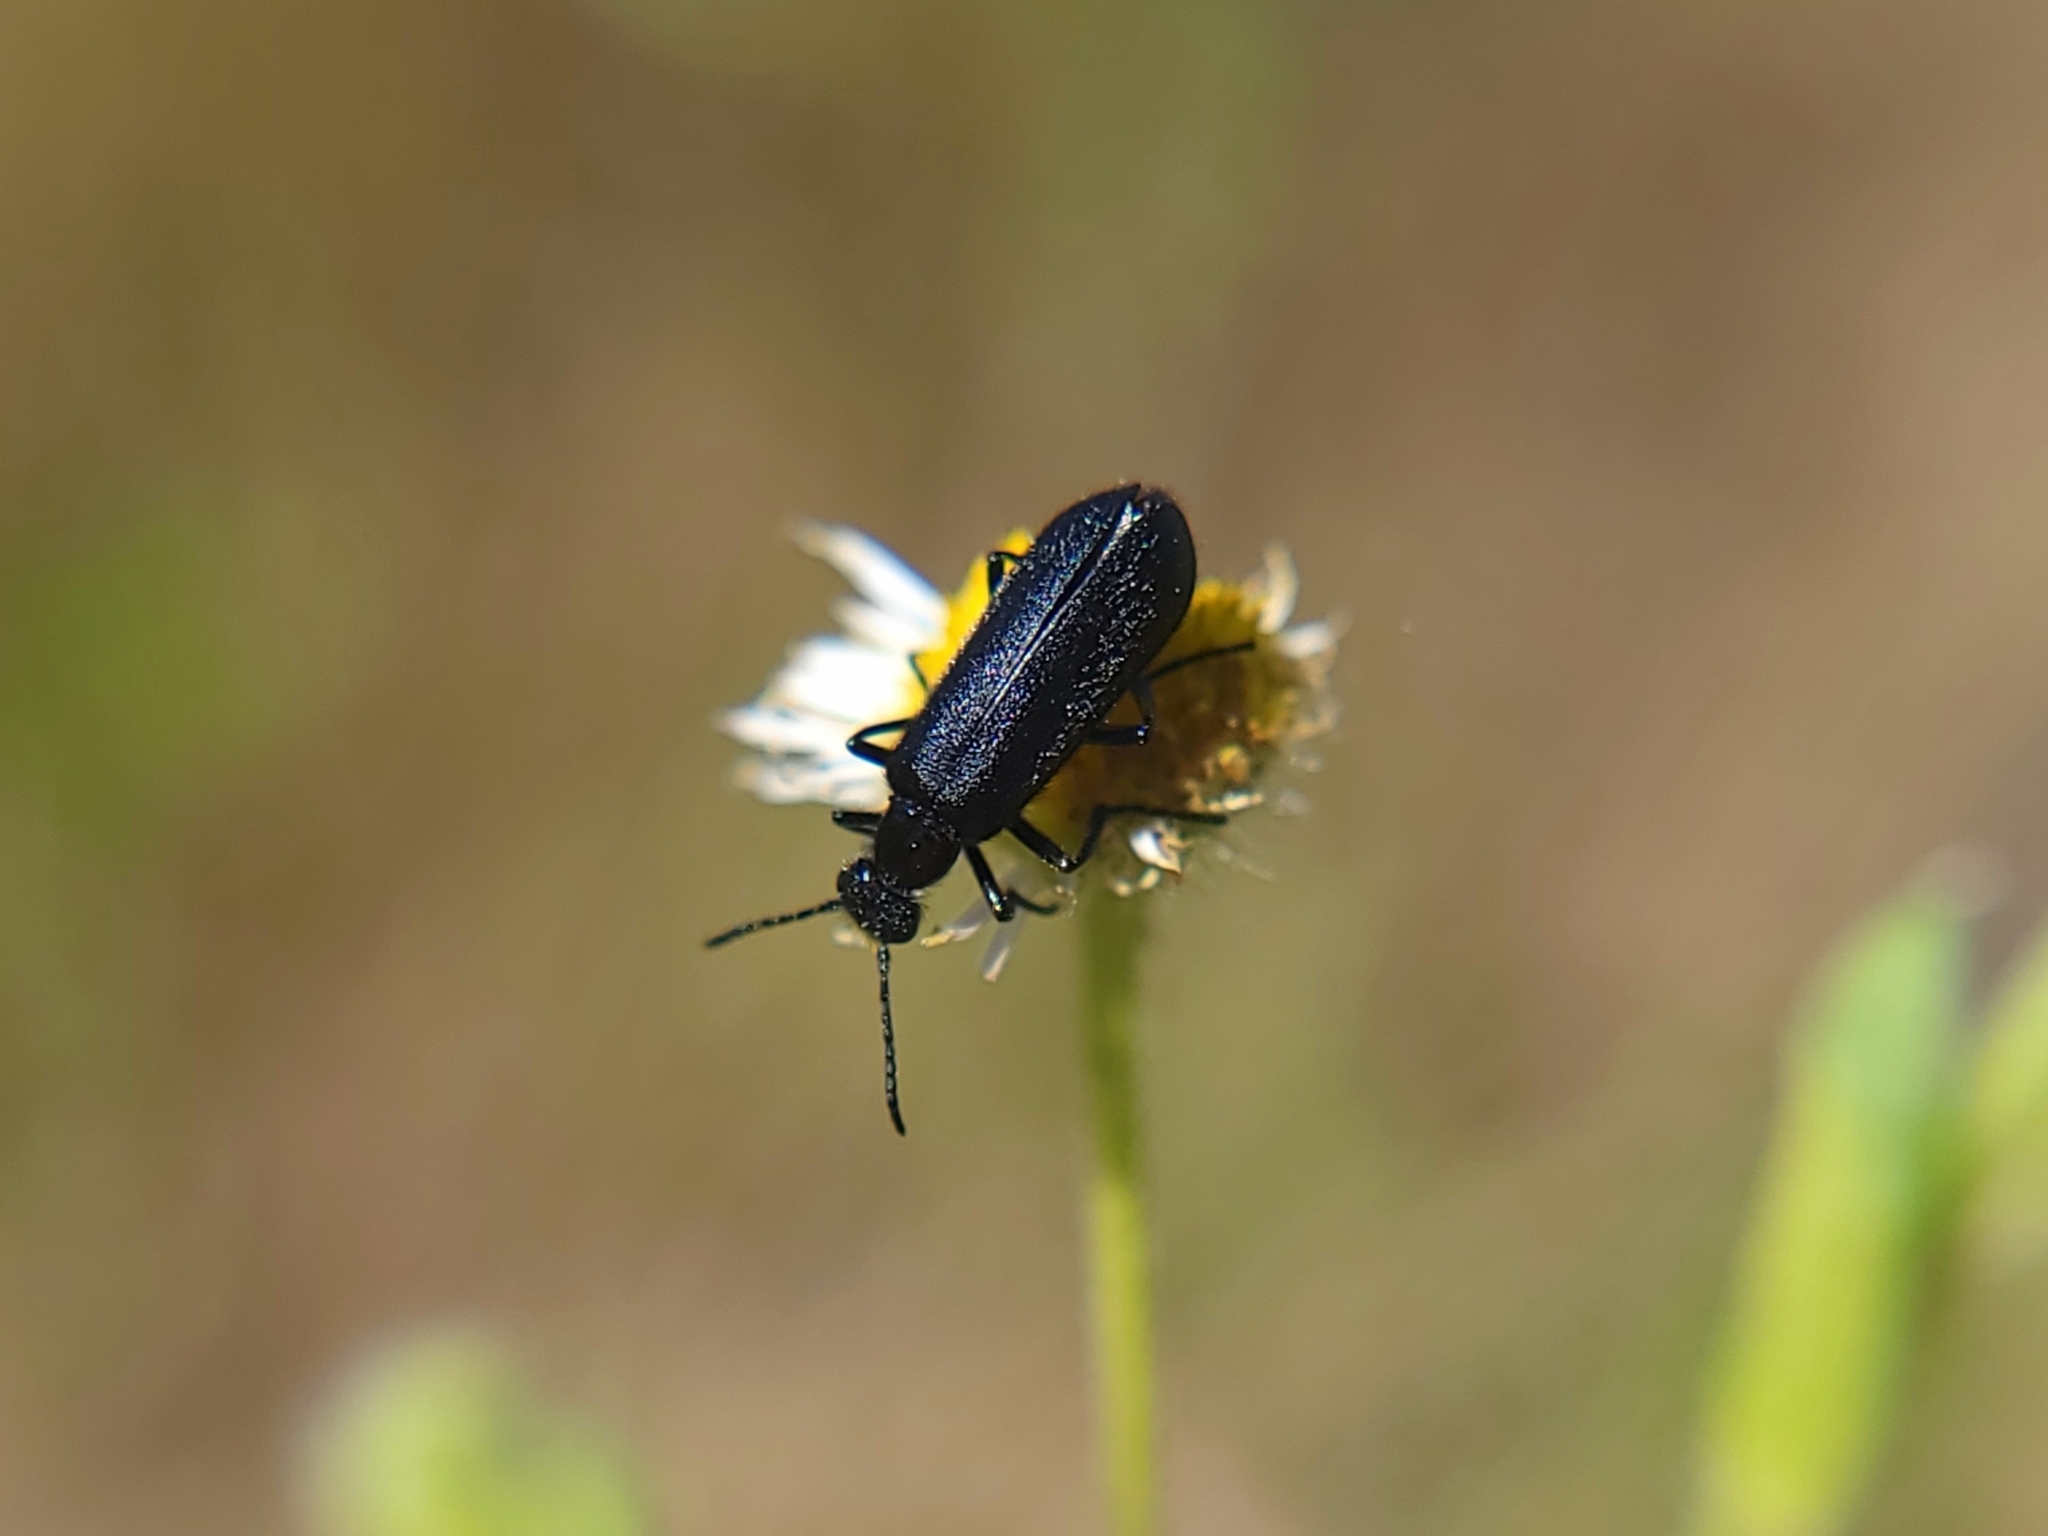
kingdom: Animalia
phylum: Arthropoda
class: Insecta
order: Coleoptera
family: Meloidae
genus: Epicauta
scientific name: Epicauta puncticollis
